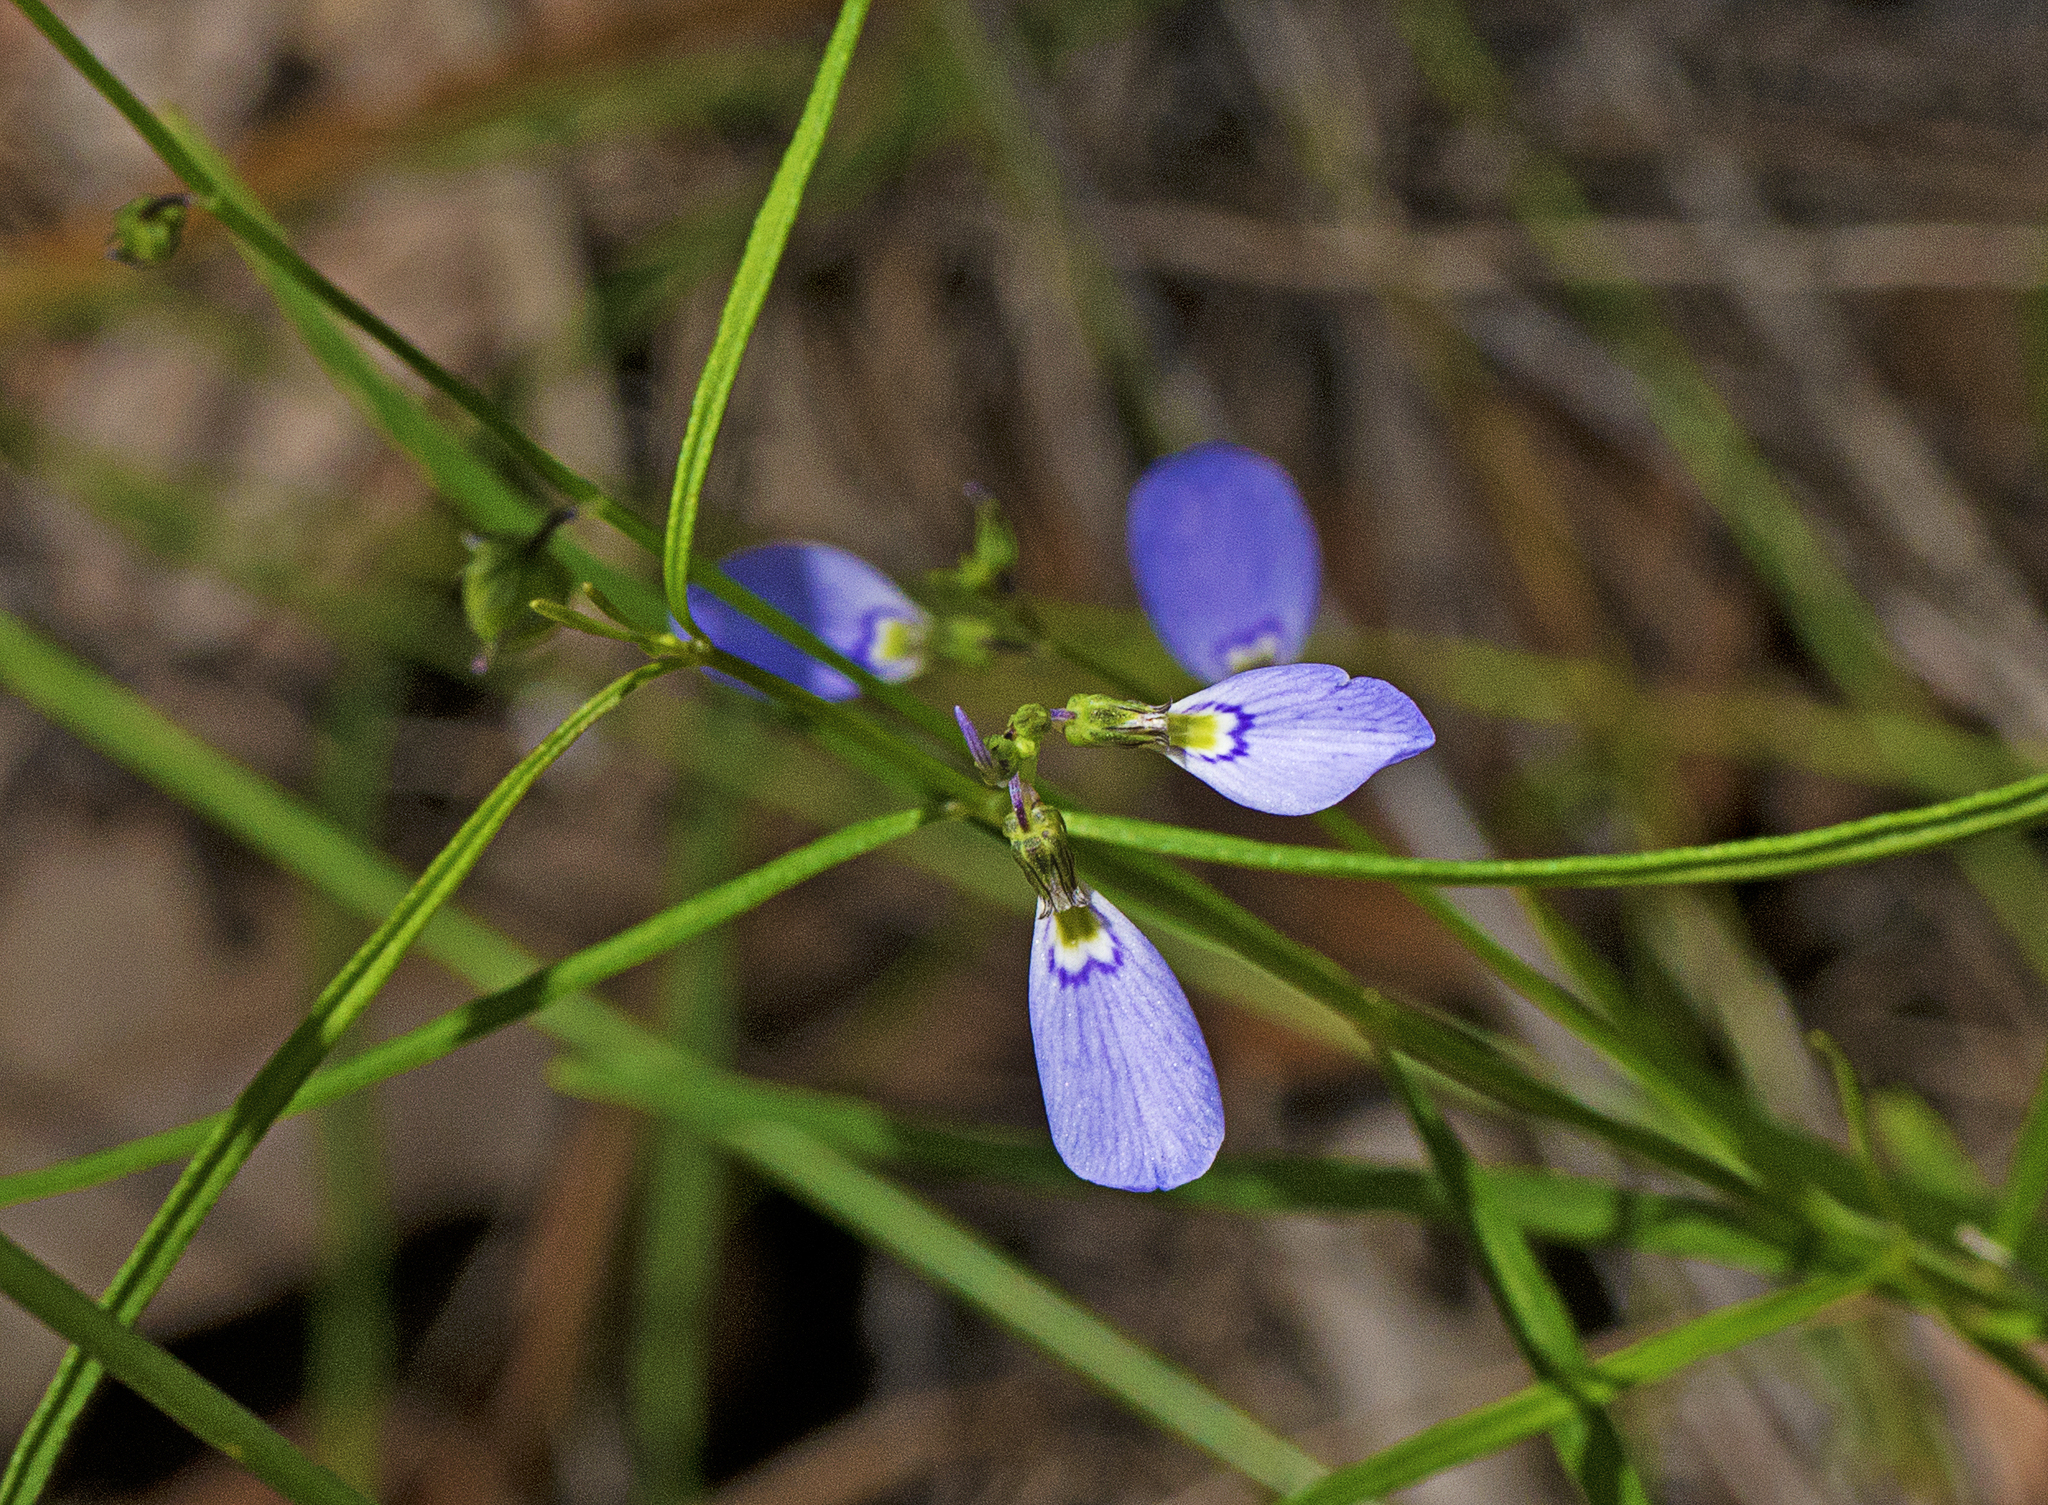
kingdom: Plantae
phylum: Tracheophyta
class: Magnoliopsida
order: Malpighiales
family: Violaceae
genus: Pigea
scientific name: Pigea monopetala
